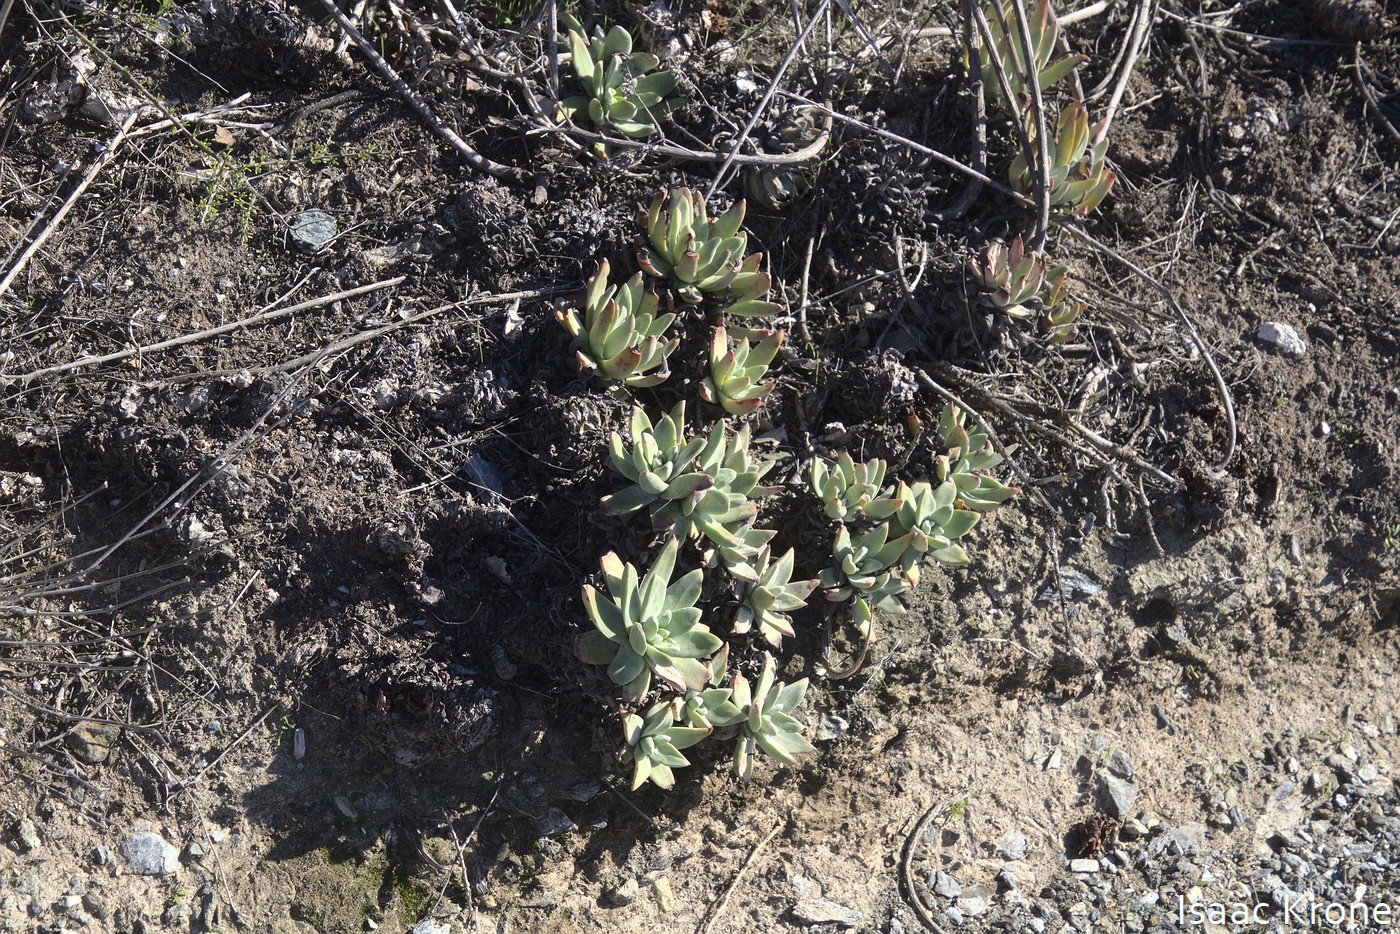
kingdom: Plantae
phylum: Tracheophyta
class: Magnoliopsida
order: Saxifragales
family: Crassulaceae
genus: Dudleya
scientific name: Dudleya virens
